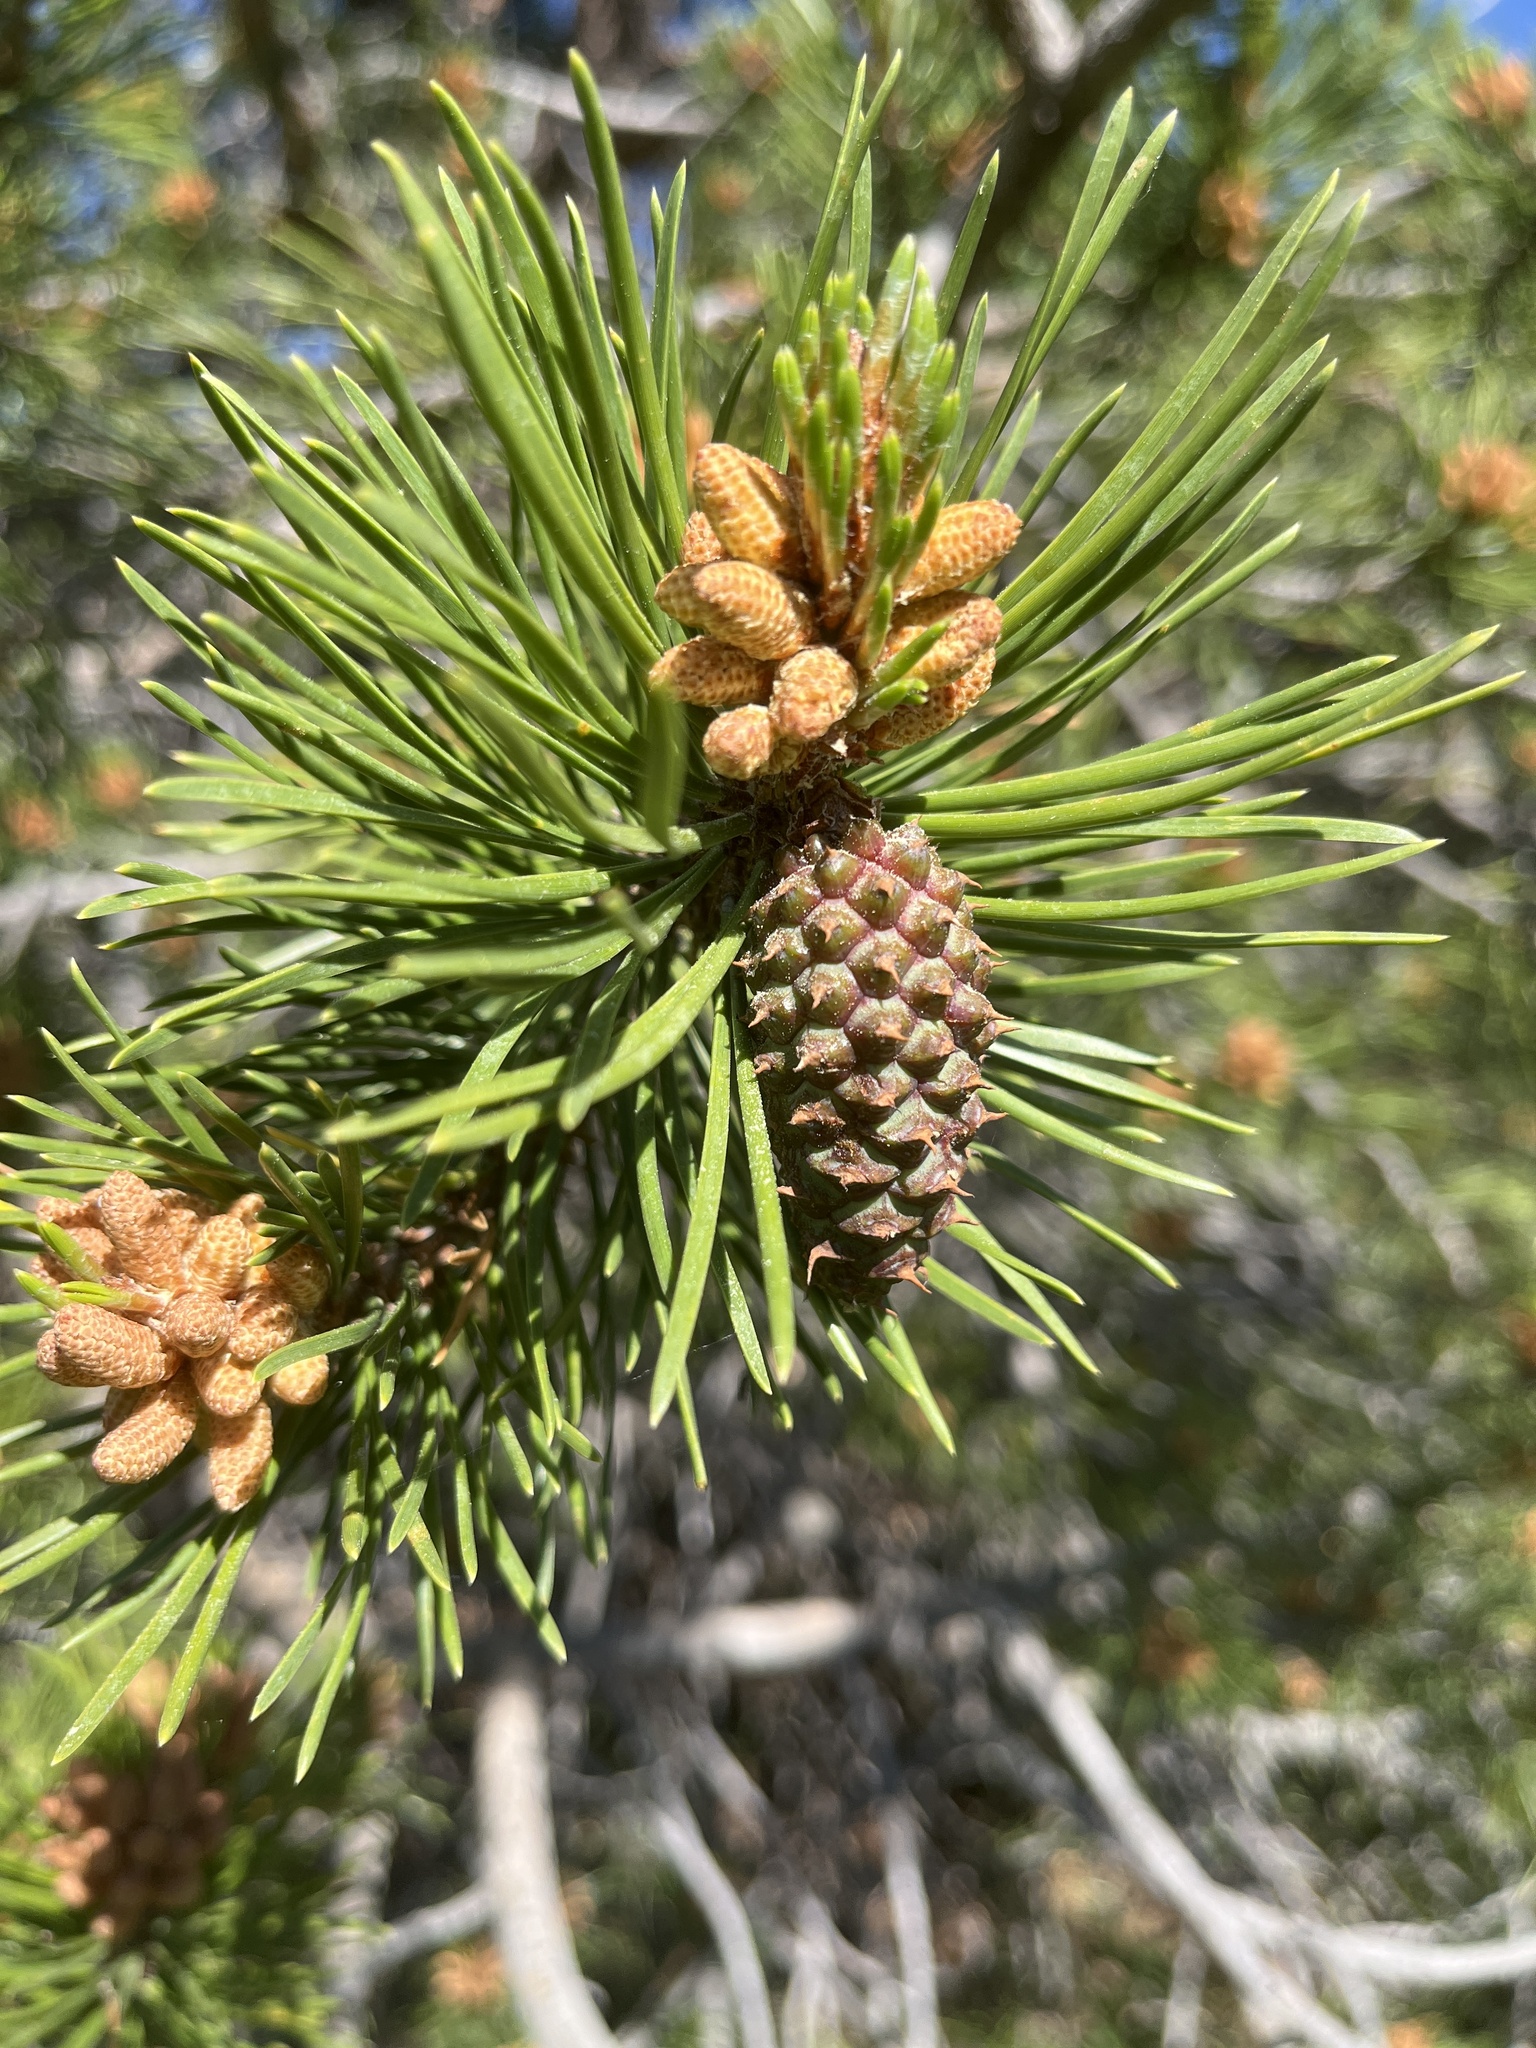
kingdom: Plantae
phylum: Tracheophyta
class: Pinopsida
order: Pinales
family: Pinaceae
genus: Pinus
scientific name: Pinus contorta
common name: Lodgepole pine
